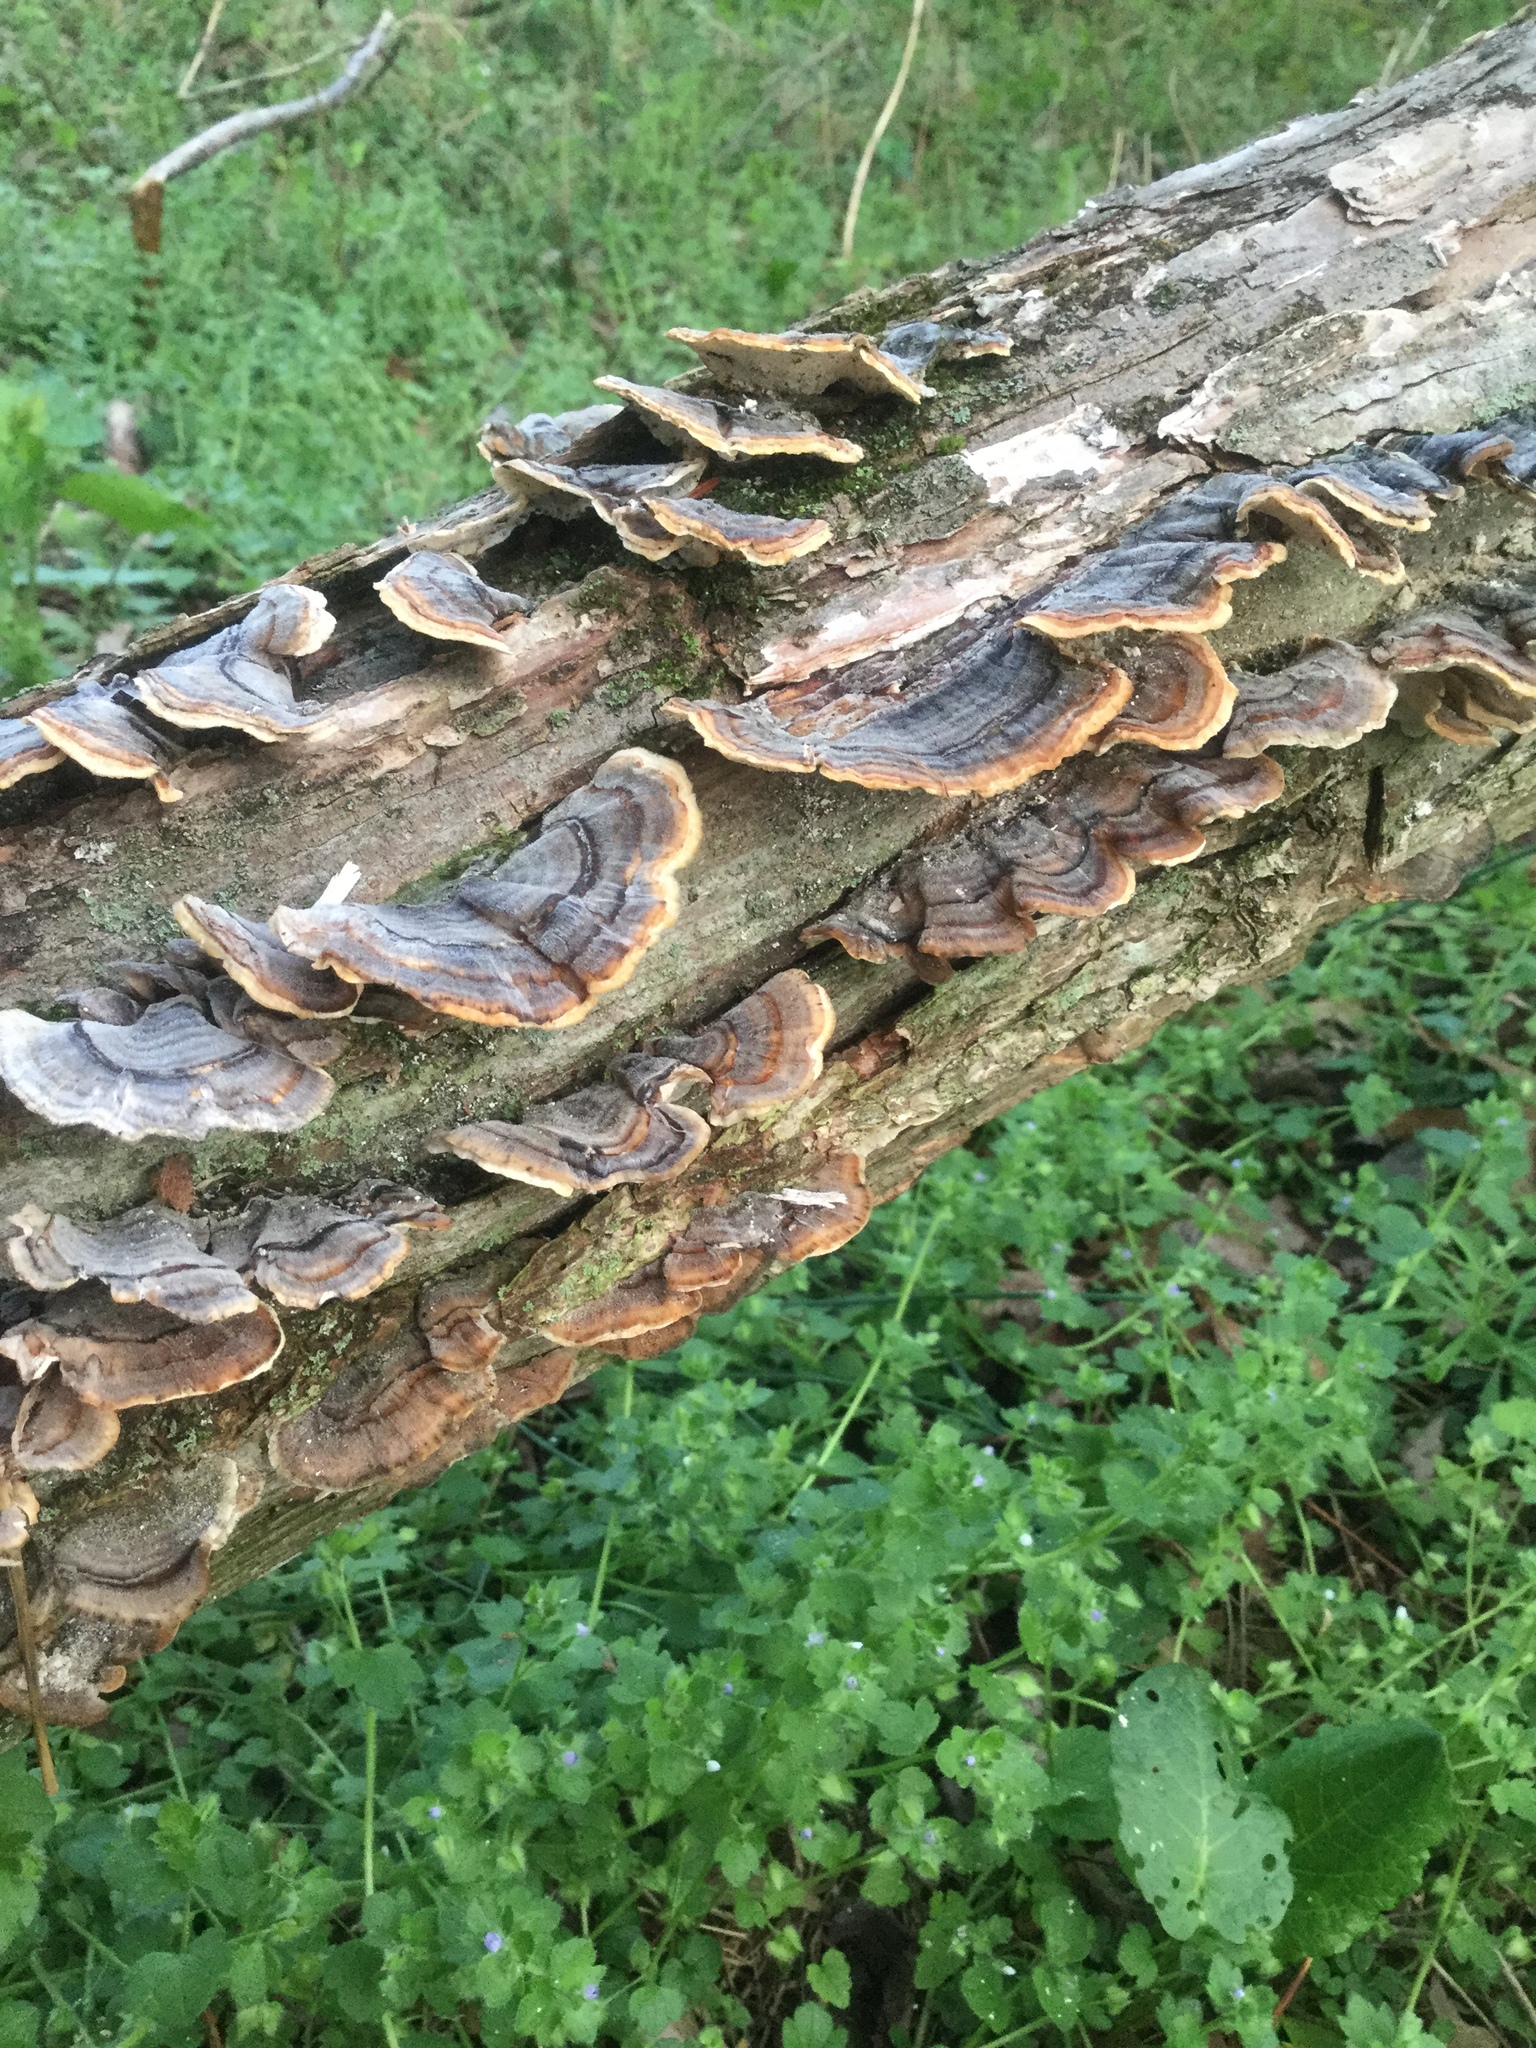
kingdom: Fungi
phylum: Basidiomycota
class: Agaricomycetes
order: Polyporales
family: Polyporaceae
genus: Trametes
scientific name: Trametes versicolor
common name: Turkeytail
